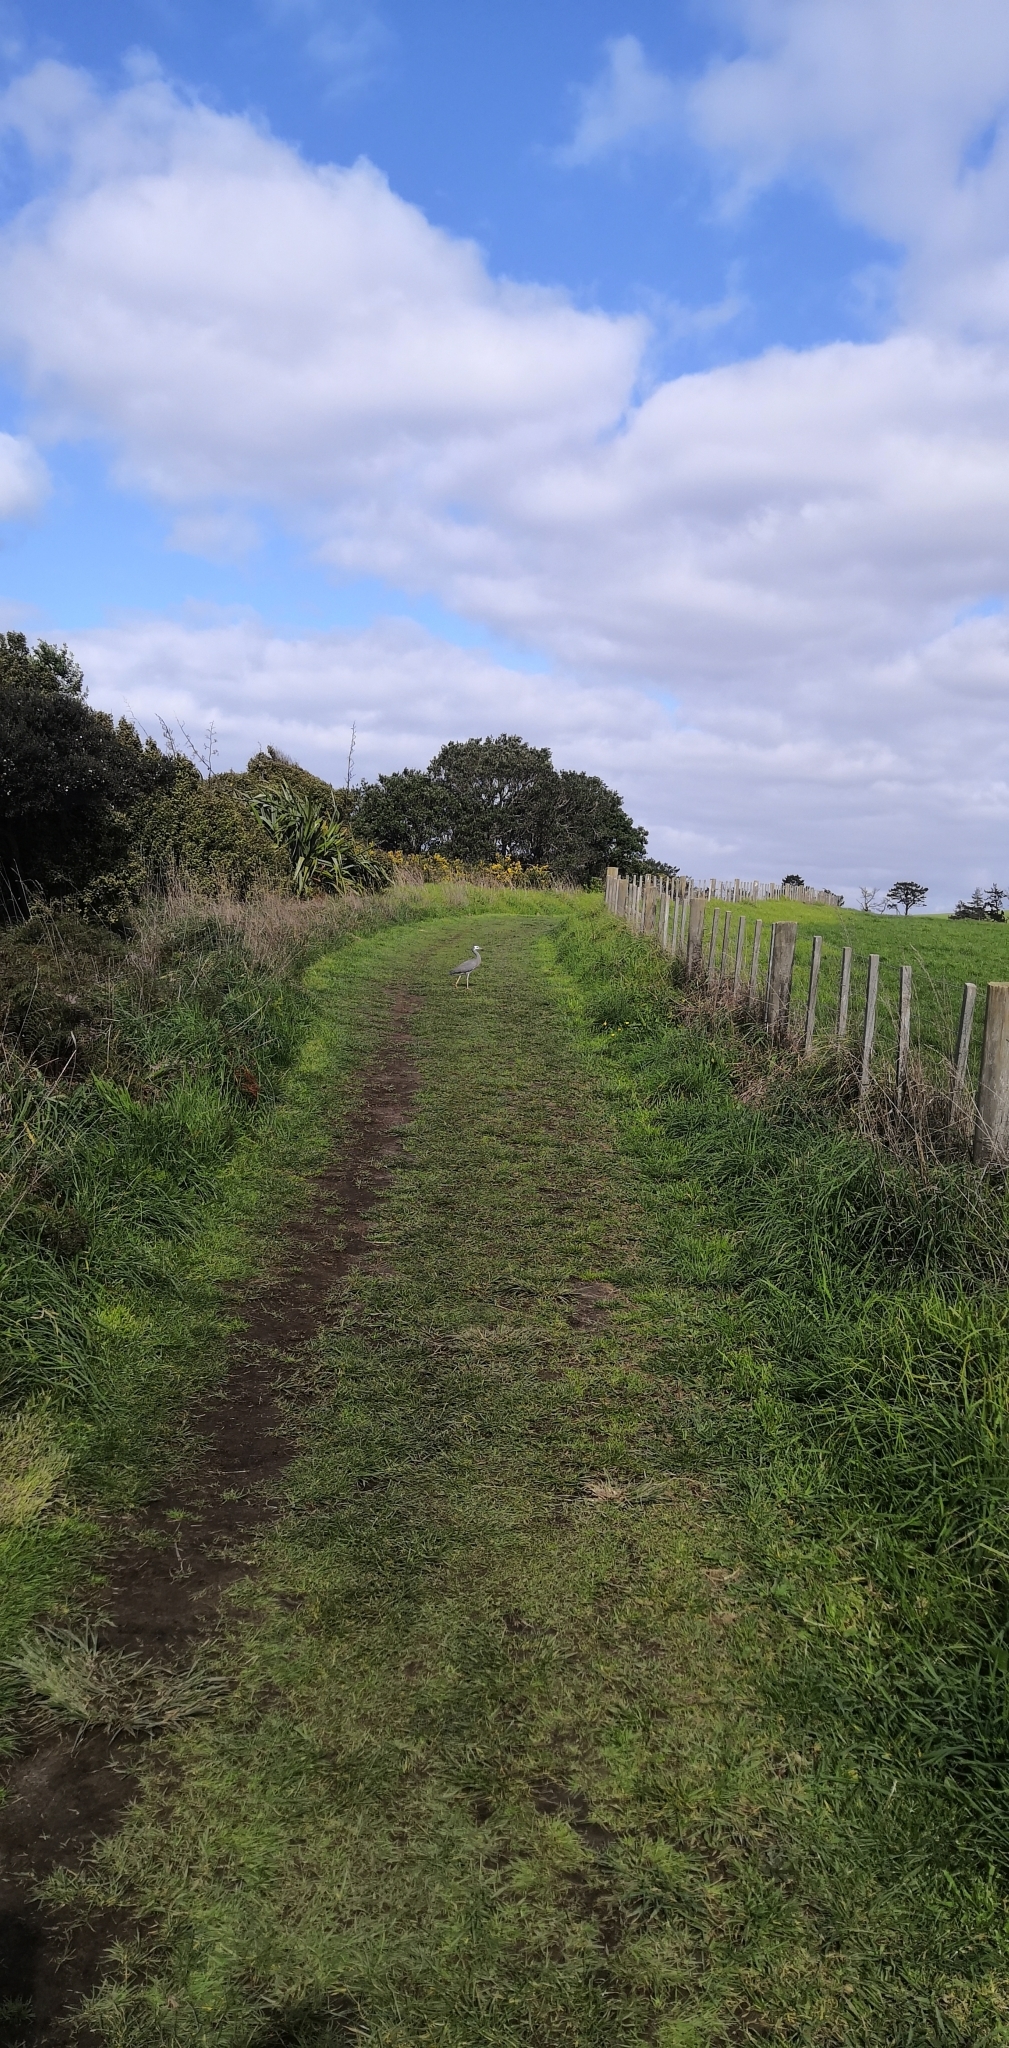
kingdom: Animalia
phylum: Chordata
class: Aves
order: Pelecaniformes
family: Ardeidae
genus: Egretta
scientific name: Egretta novaehollandiae
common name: White-faced heron
